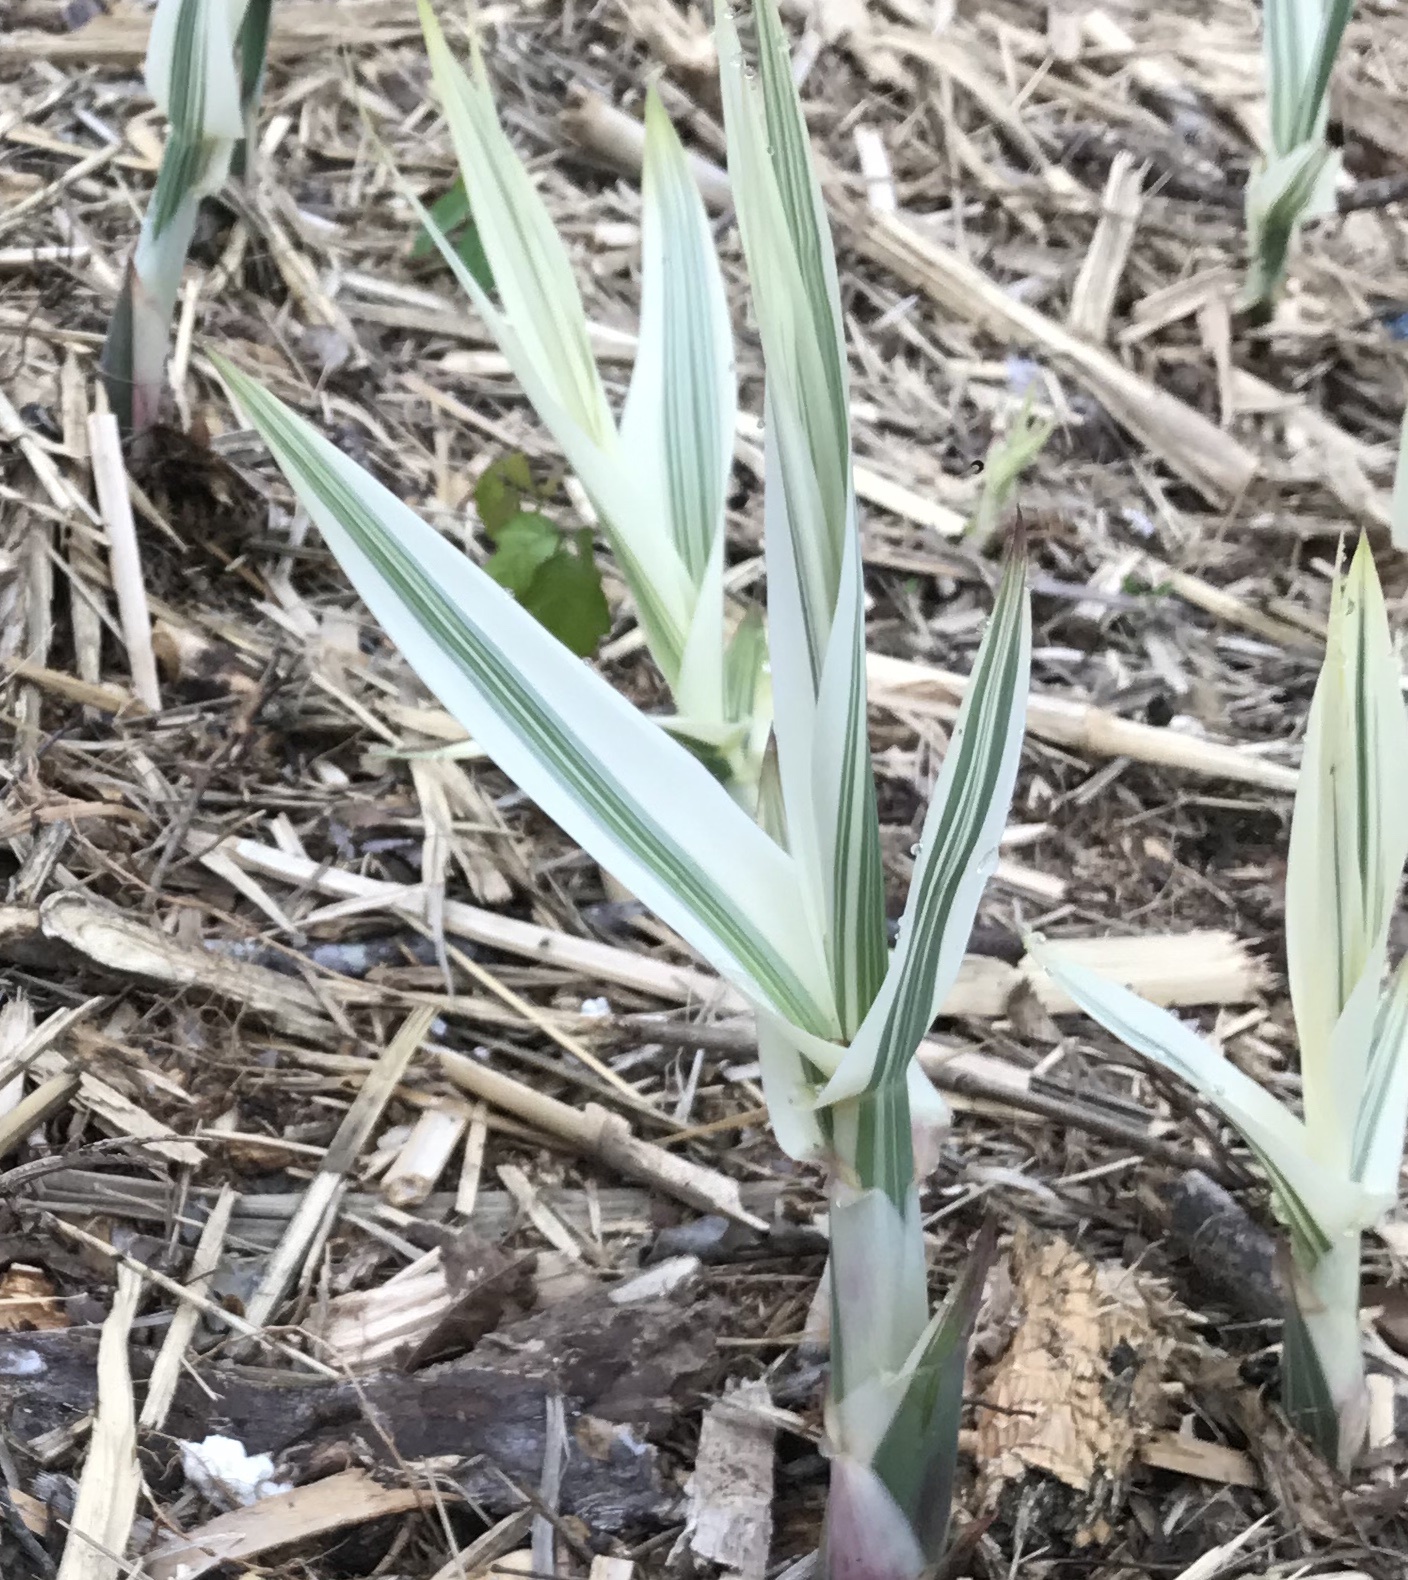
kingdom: Plantae
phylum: Tracheophyta
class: Liliopsida
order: Poales
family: Poaceae
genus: Arundo
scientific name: Arundo donax
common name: Giant reed
